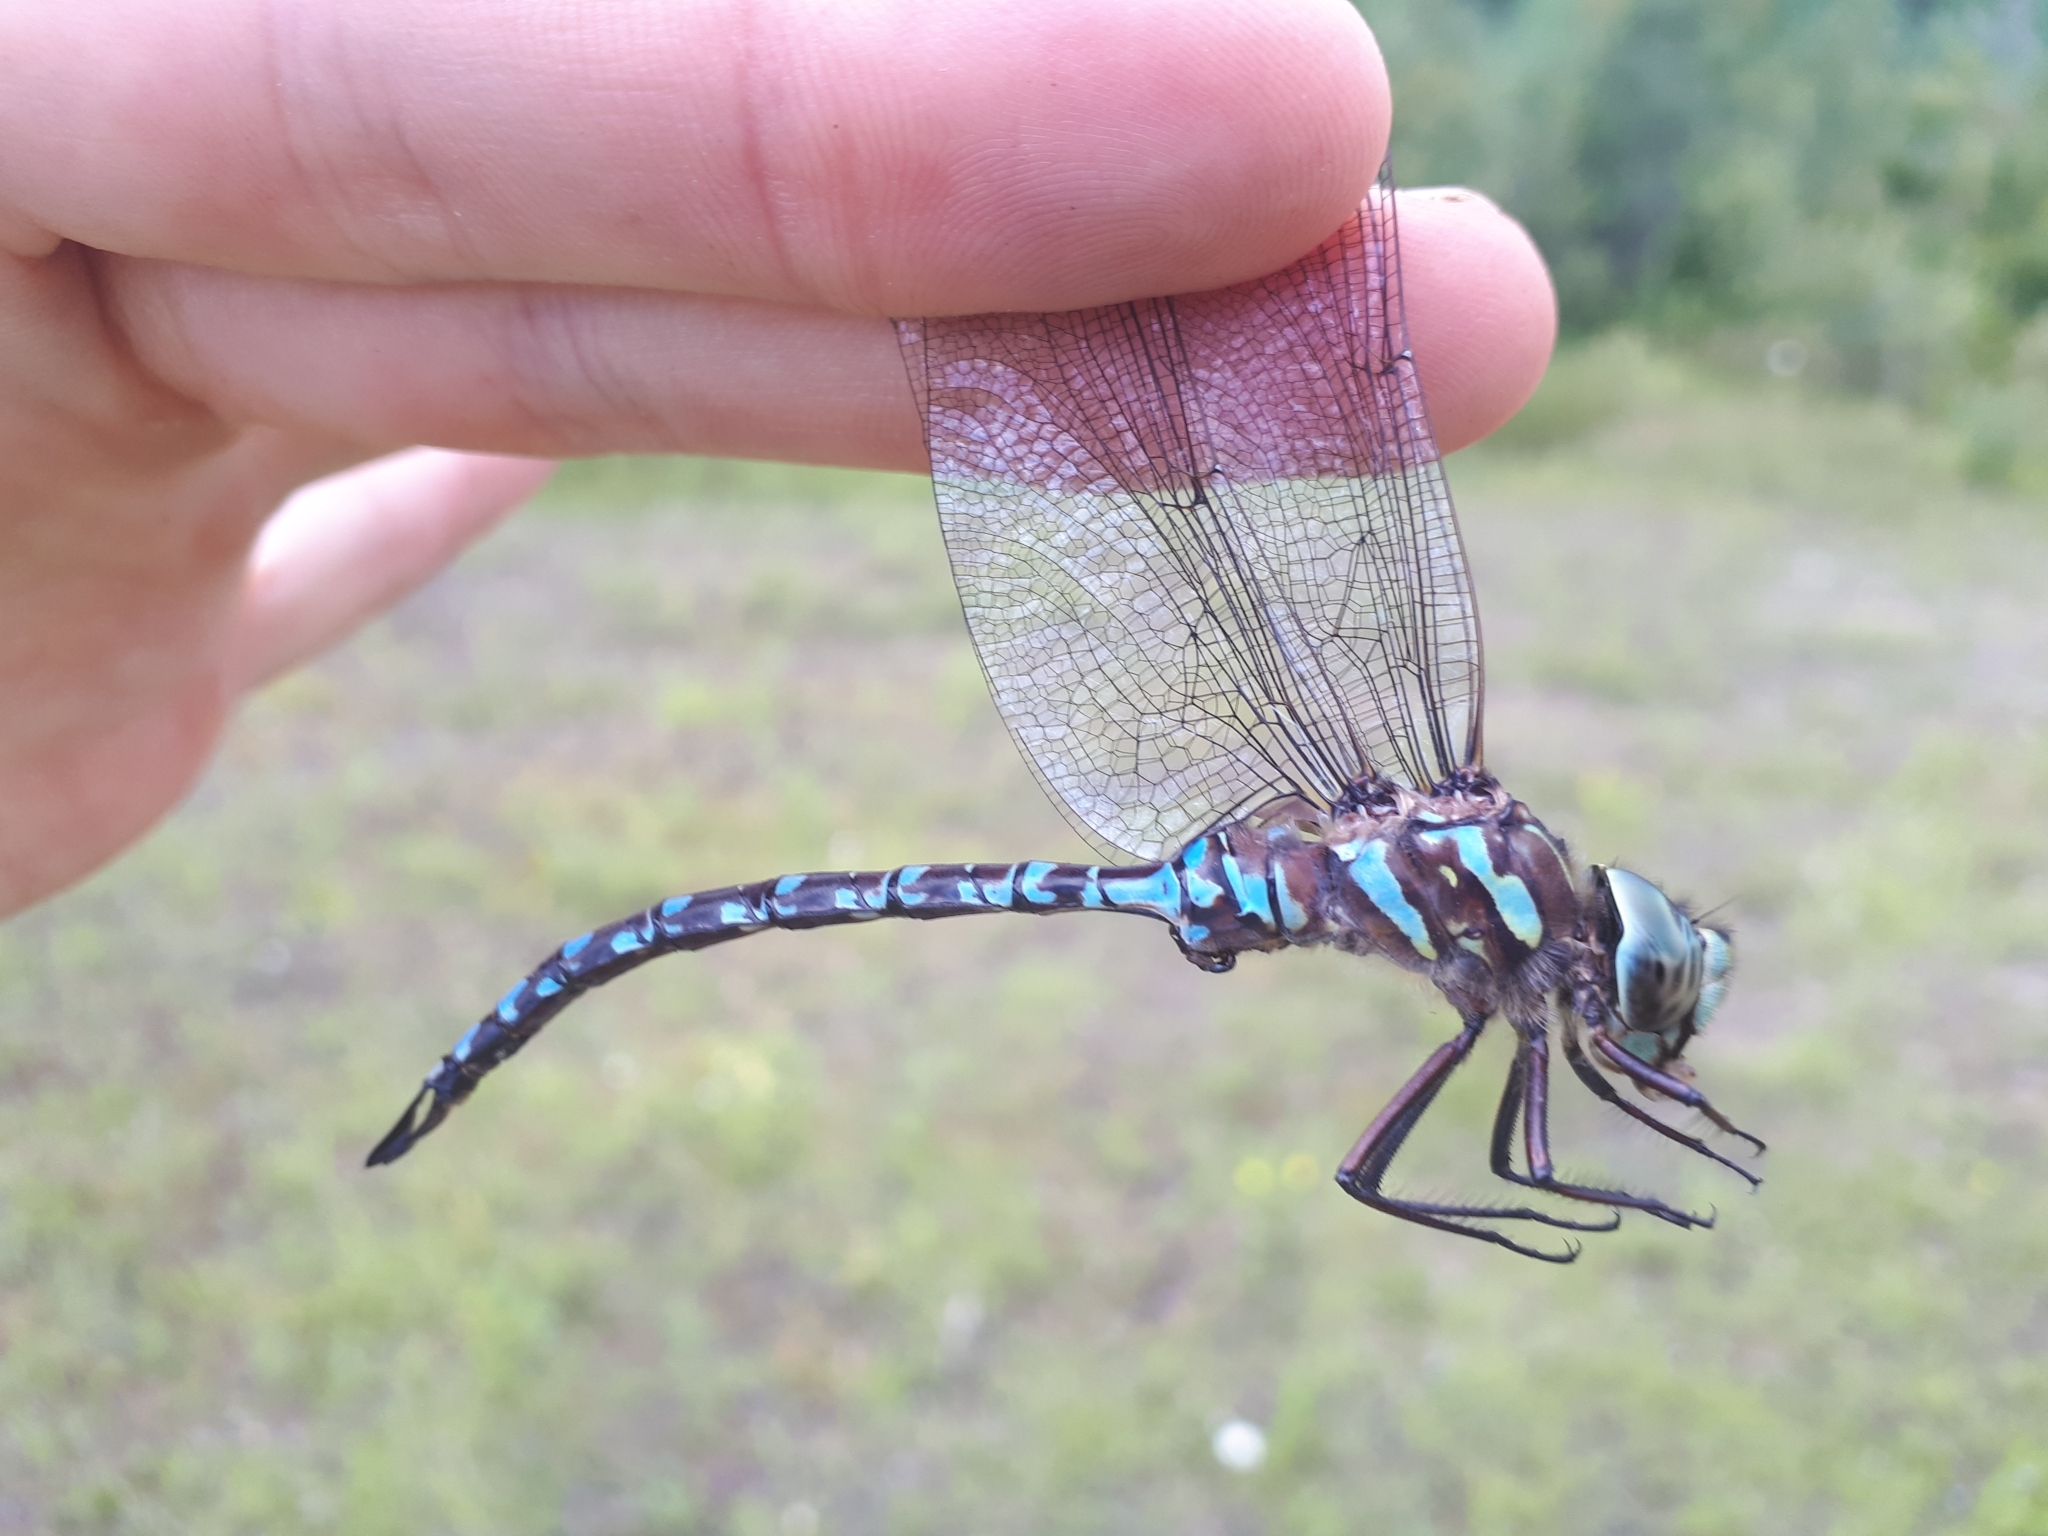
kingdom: Animalia
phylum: Arthropoda
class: Insecta
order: Odonata
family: Aeshnidae
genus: Aeshna
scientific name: Aeshna canadensis
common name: Canada darner
